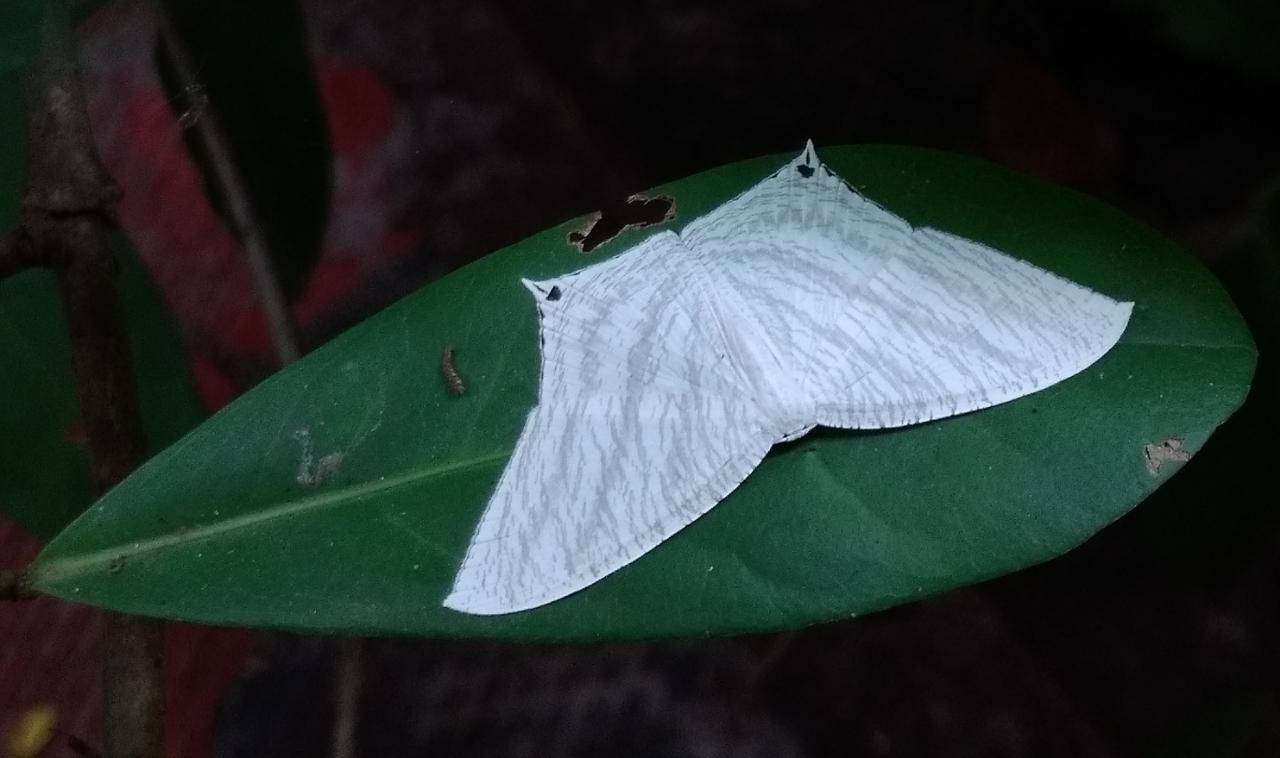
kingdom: Animalia
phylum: Arthropoda
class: Insecta
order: Lepidoptera
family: Uraniidae
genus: Micronia
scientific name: Micronia aculeata
